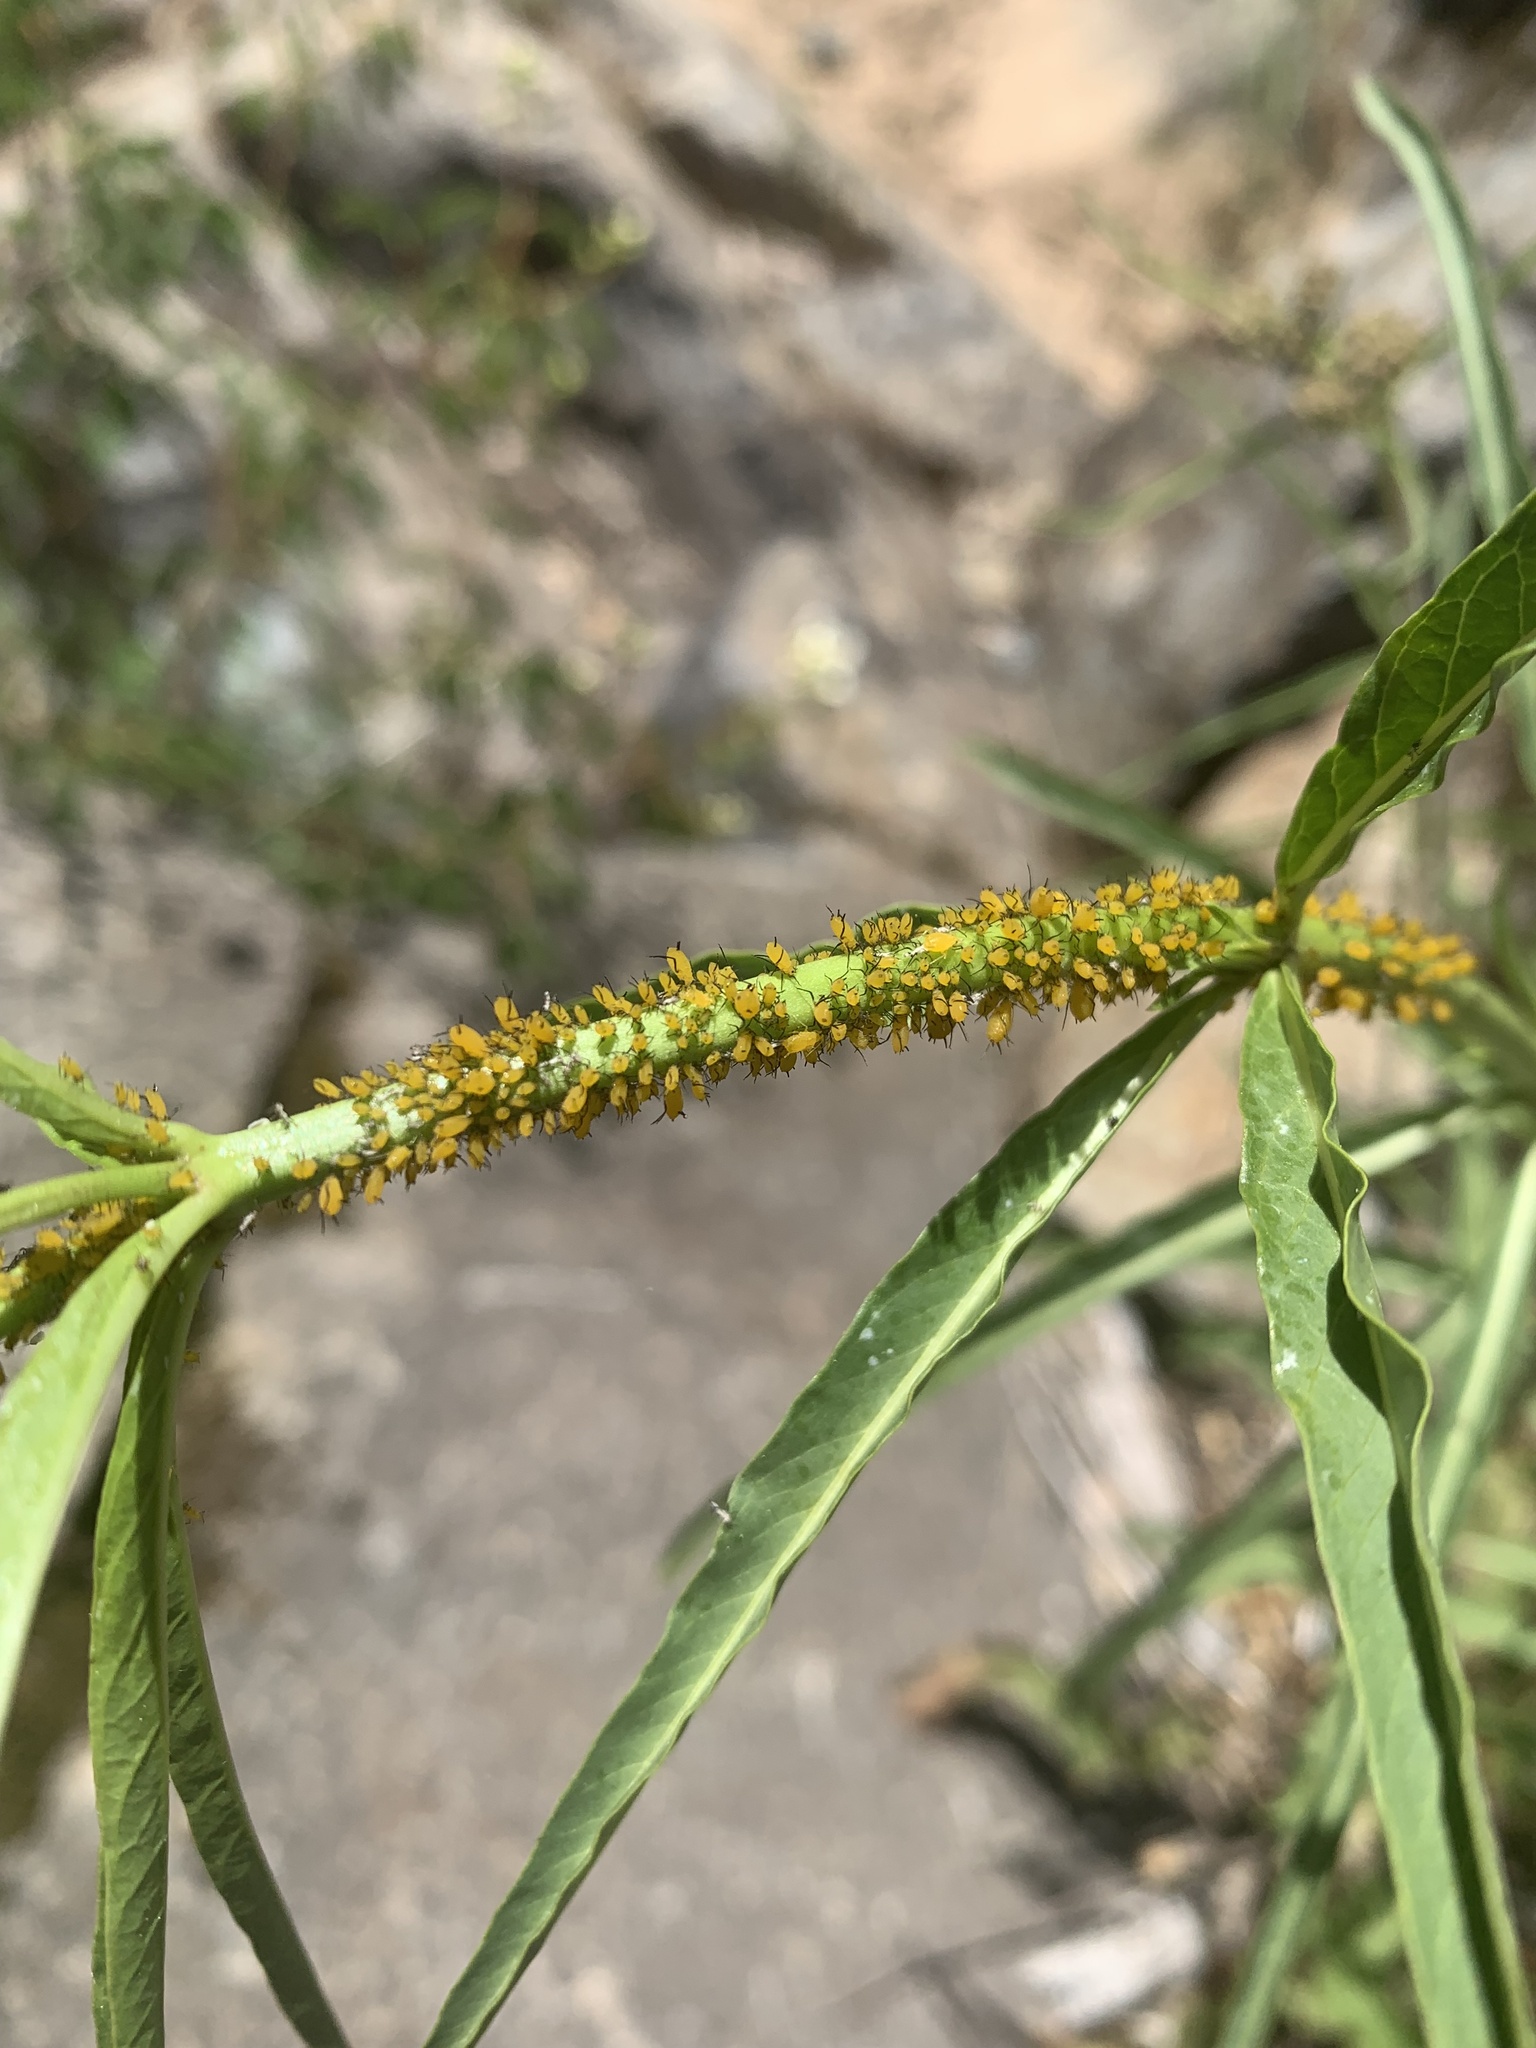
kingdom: Animalia
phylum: Arthropoda
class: Insecta
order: Hemiptera
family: Aphididae
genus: Aphis
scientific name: Aphis nerii
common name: Oleander aphid
